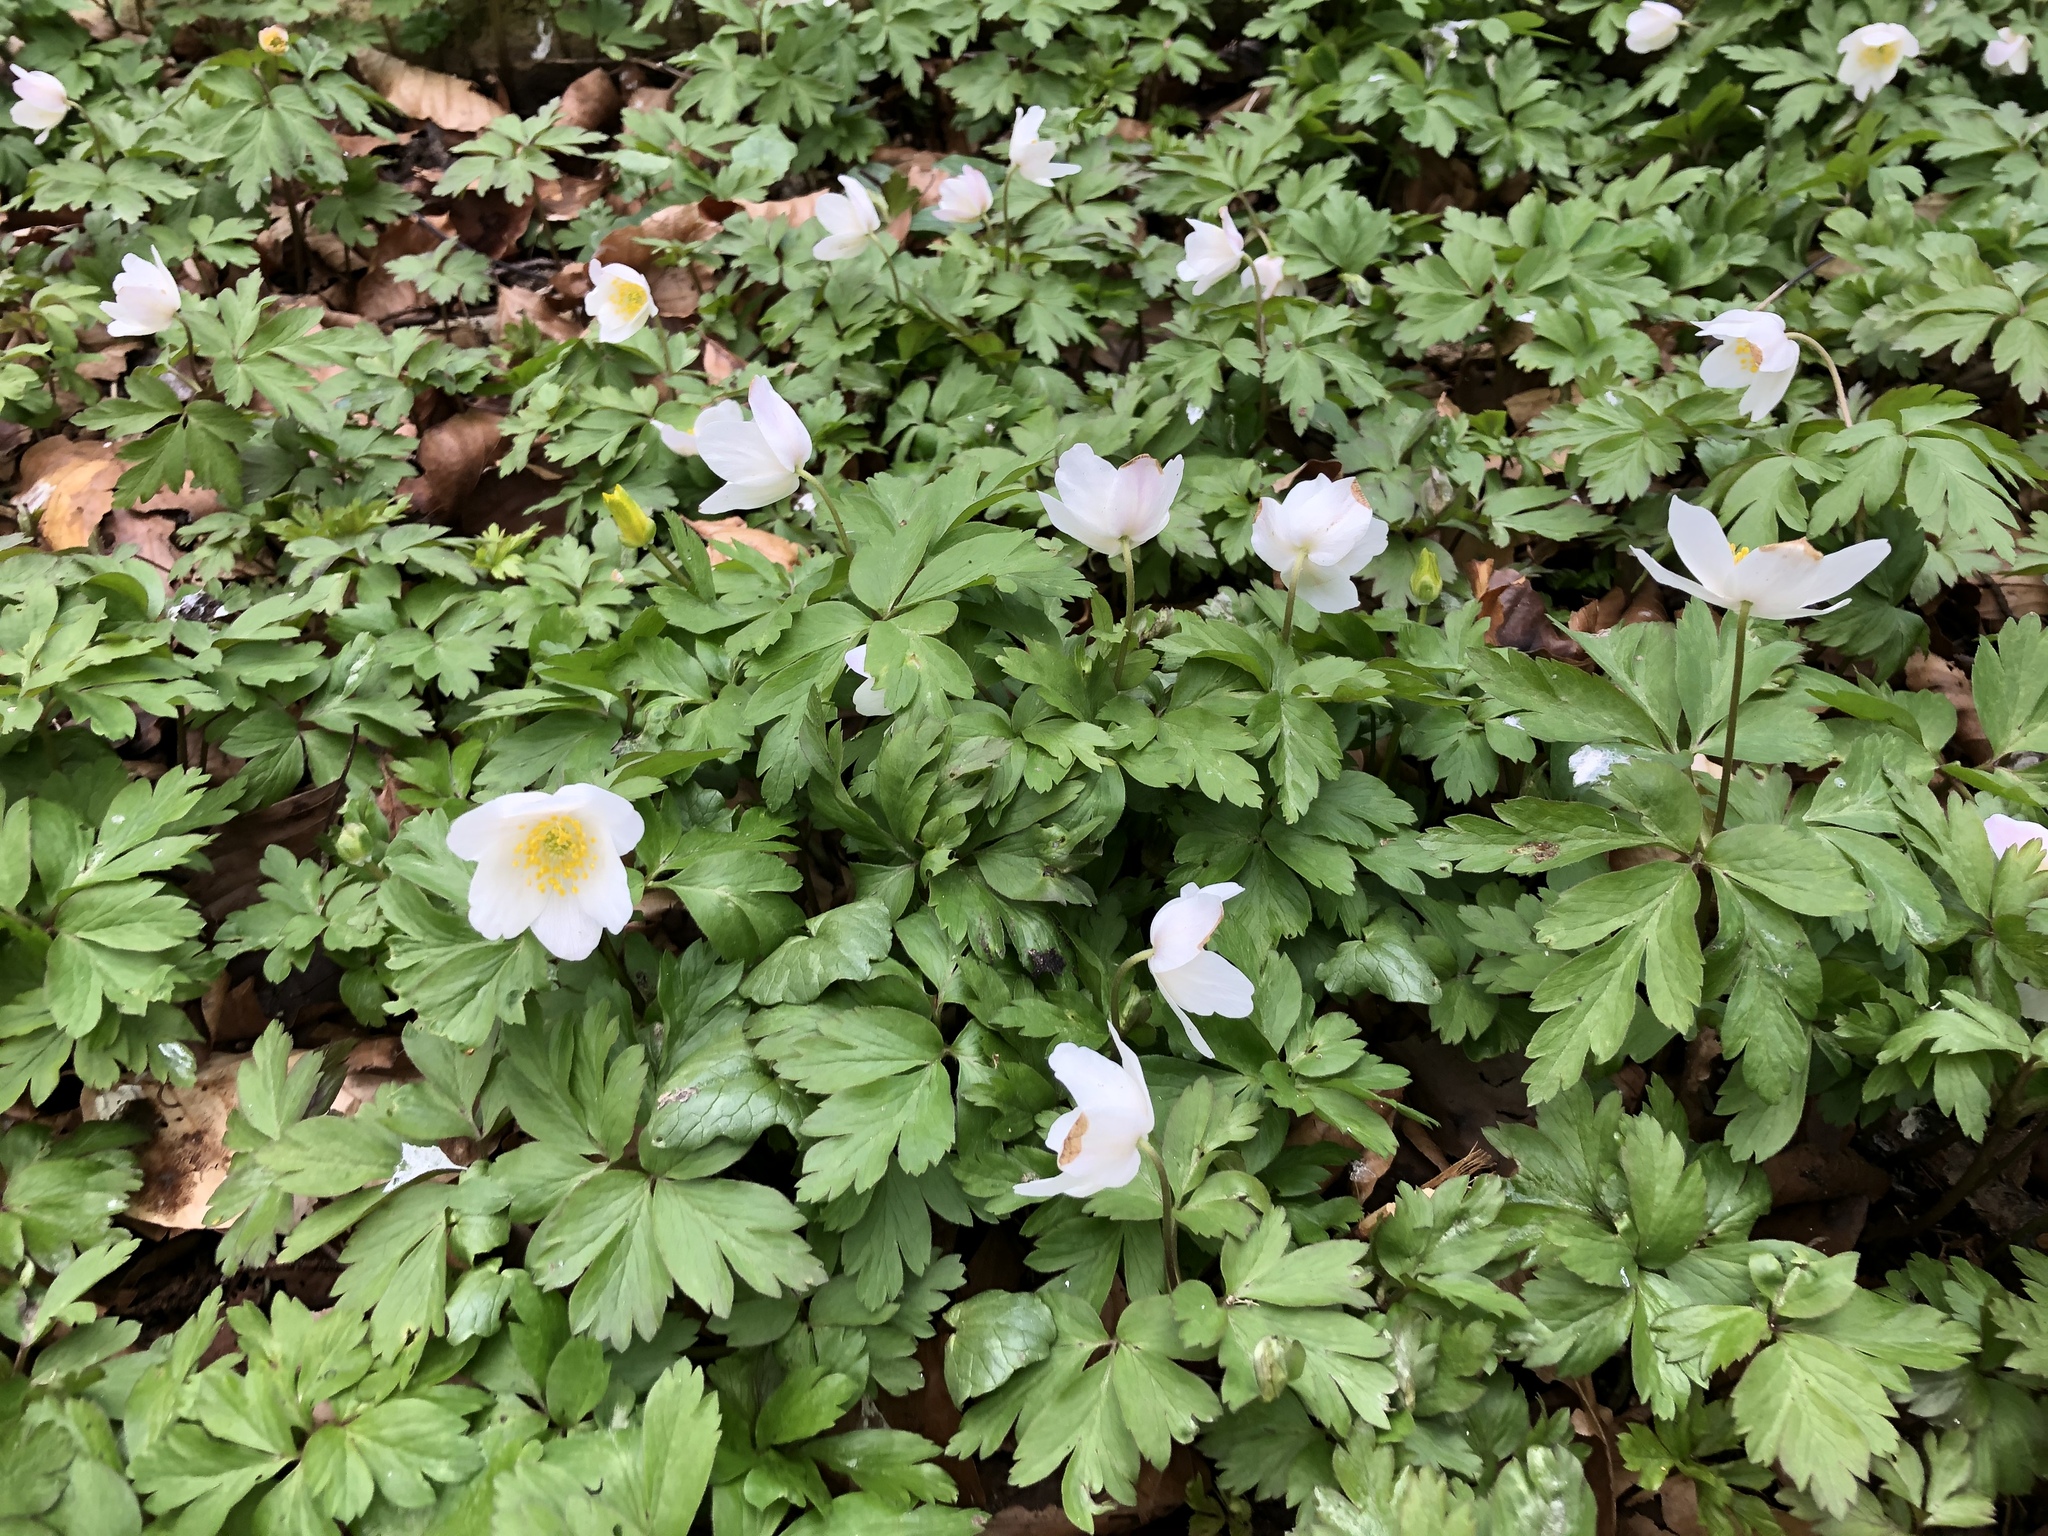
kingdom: Plantae
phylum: Tracheophyta
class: Magnoliopsida
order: Ranunculales
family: Ranunculaceae
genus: Anemone
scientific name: Anemone nemorosa
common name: Wood anemone
